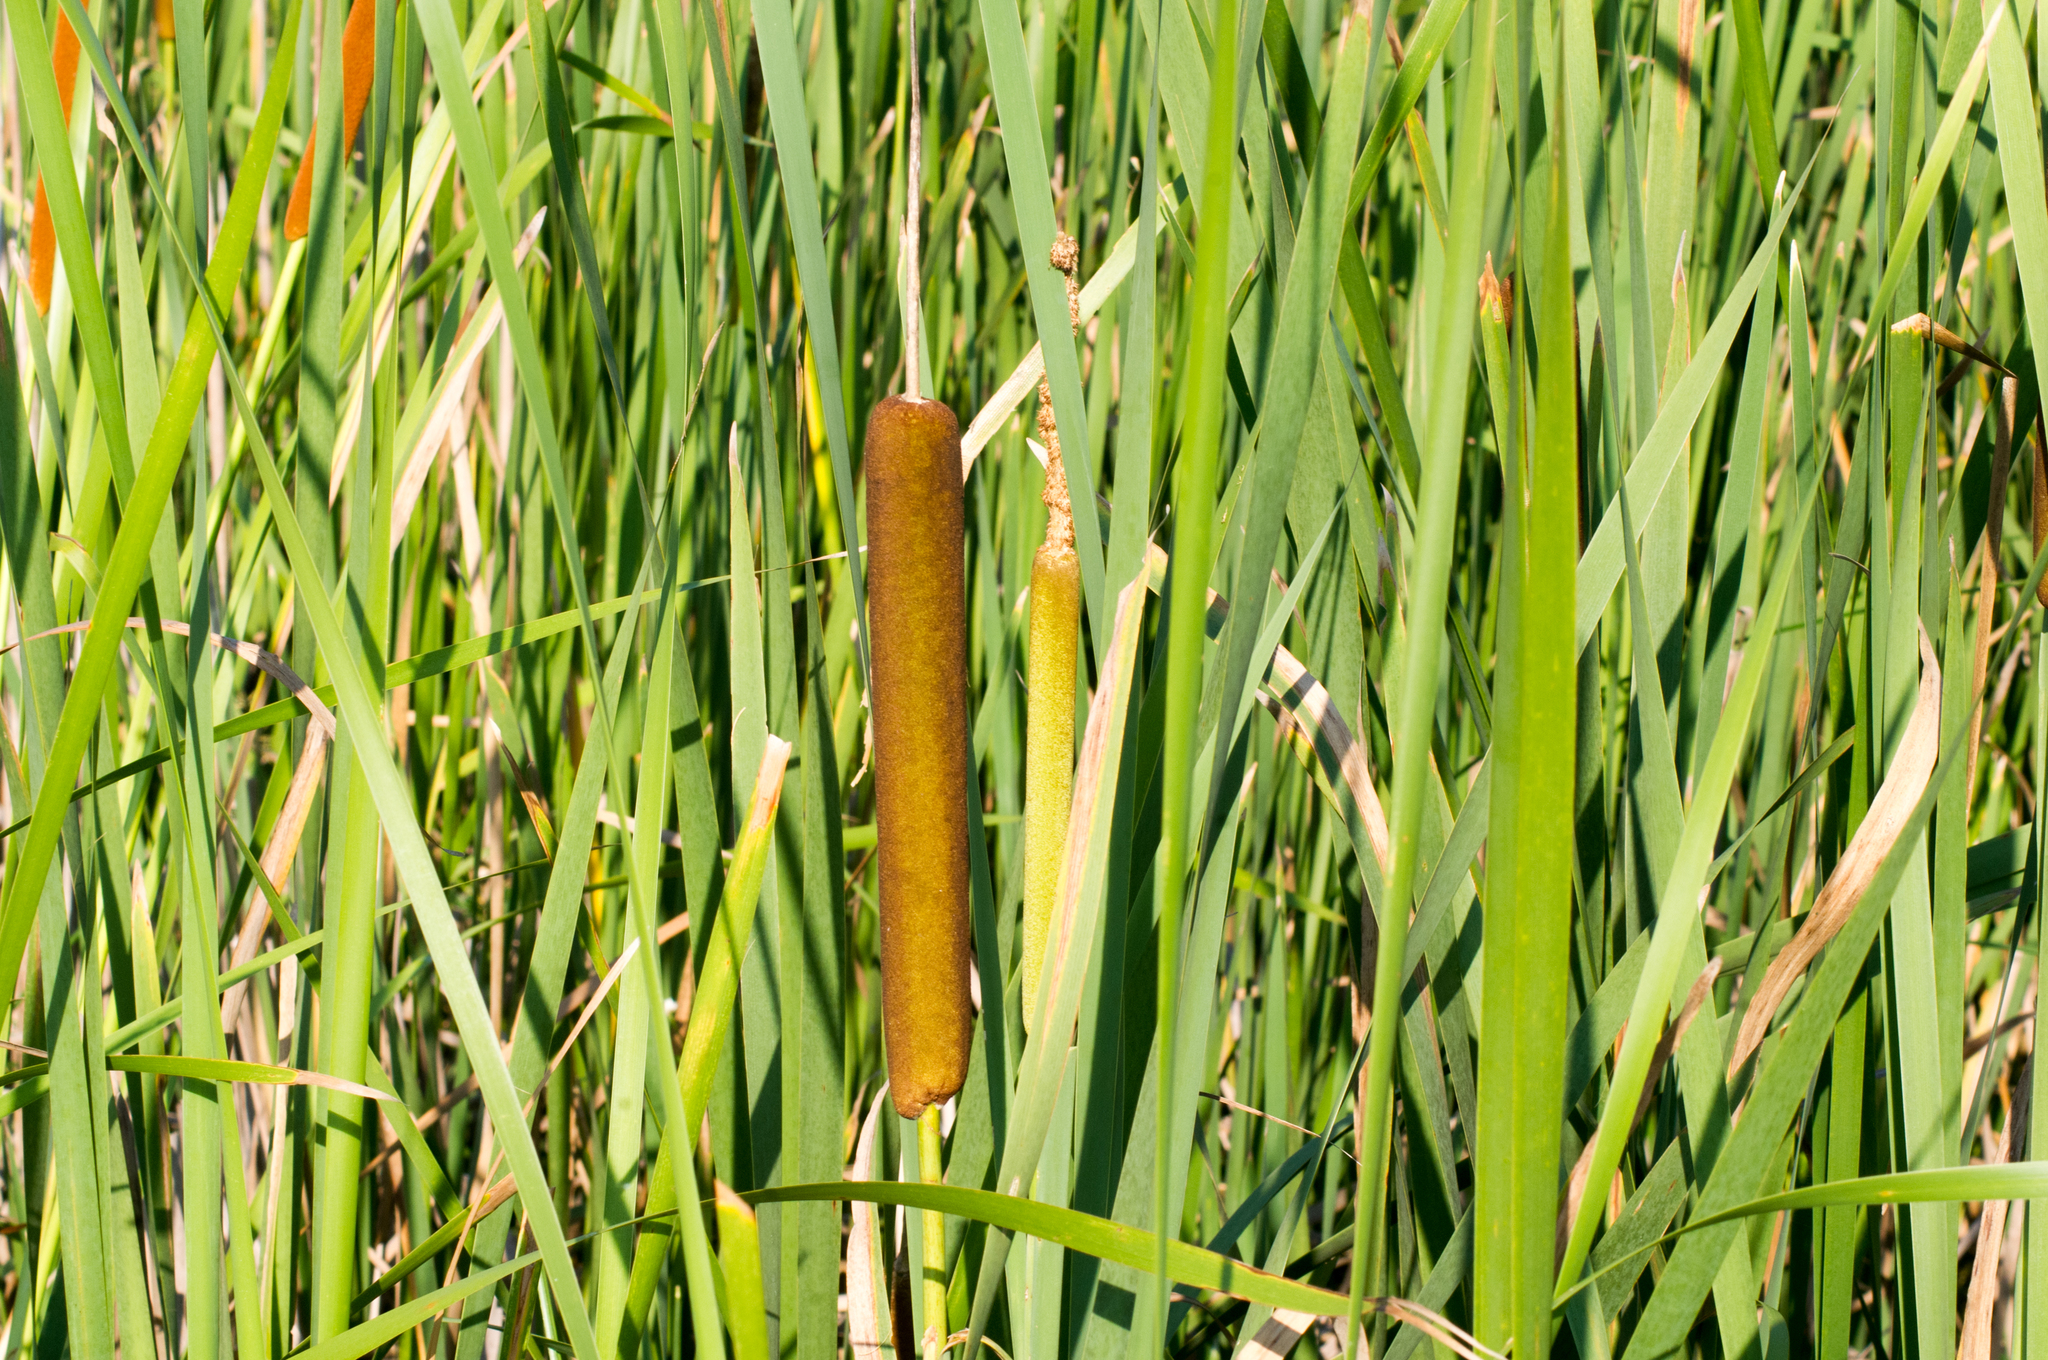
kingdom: Plantae
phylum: Tracheophyta
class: Liliopsida
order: Poales
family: Typhaceae
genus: Typha
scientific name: Typha latifolia
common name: Broadleaf cattail
